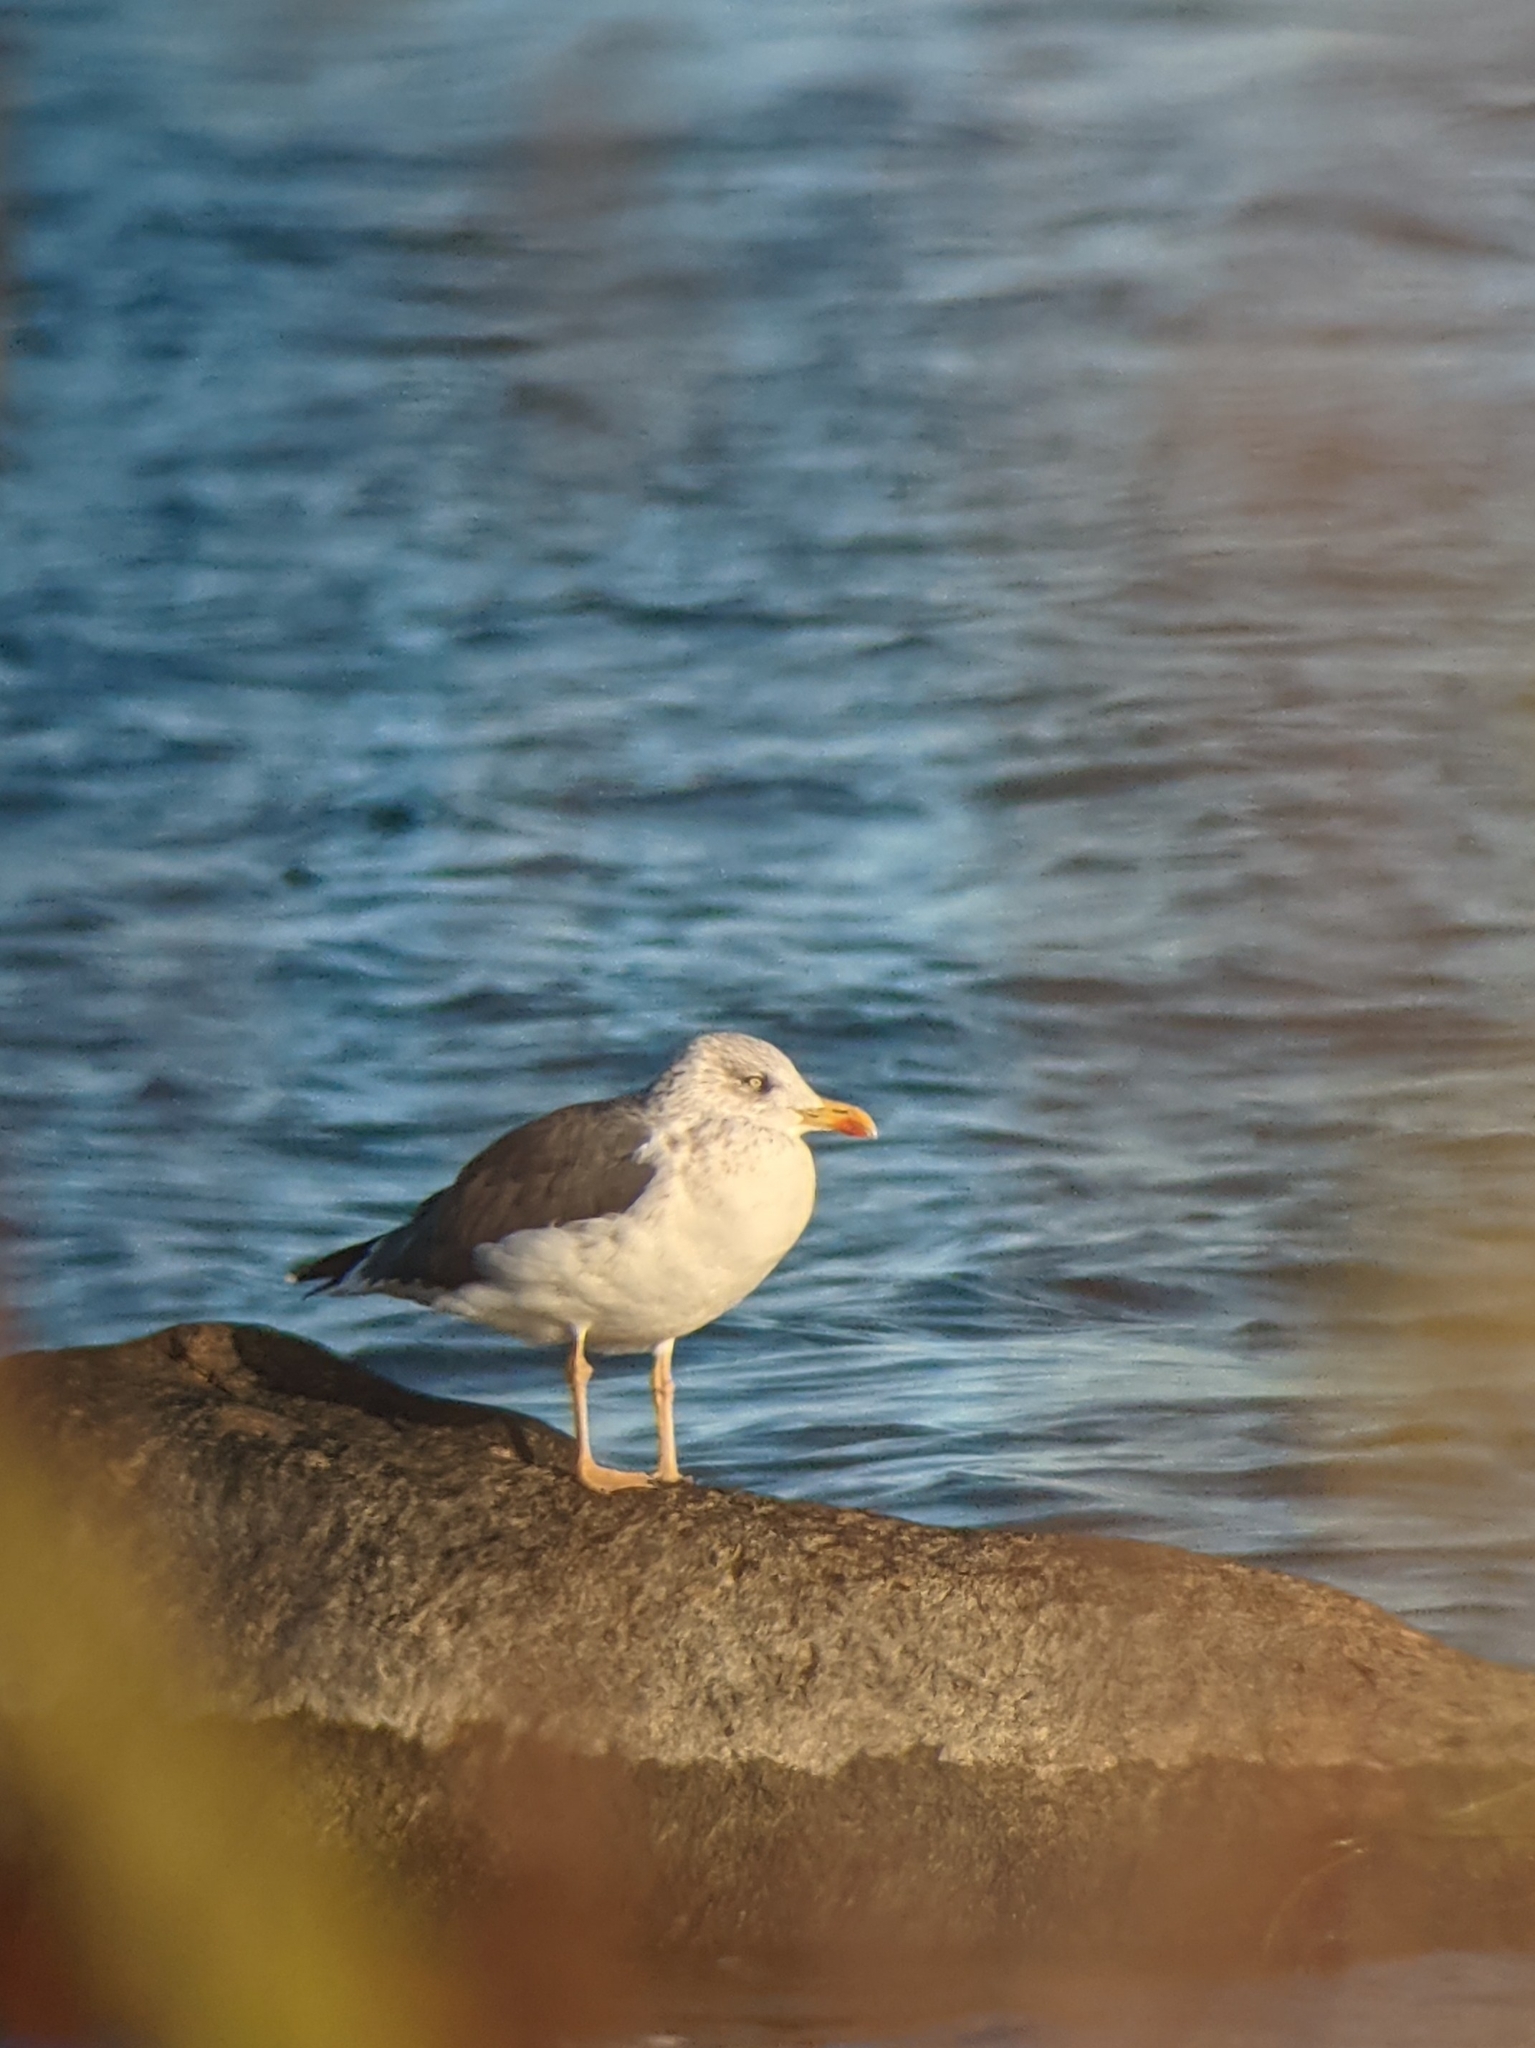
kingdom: Animalia
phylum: Chordata
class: Aves
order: Charadriiformes
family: Laridae
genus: Larus
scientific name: Larus fuscus
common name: Lesser black-backed gull
